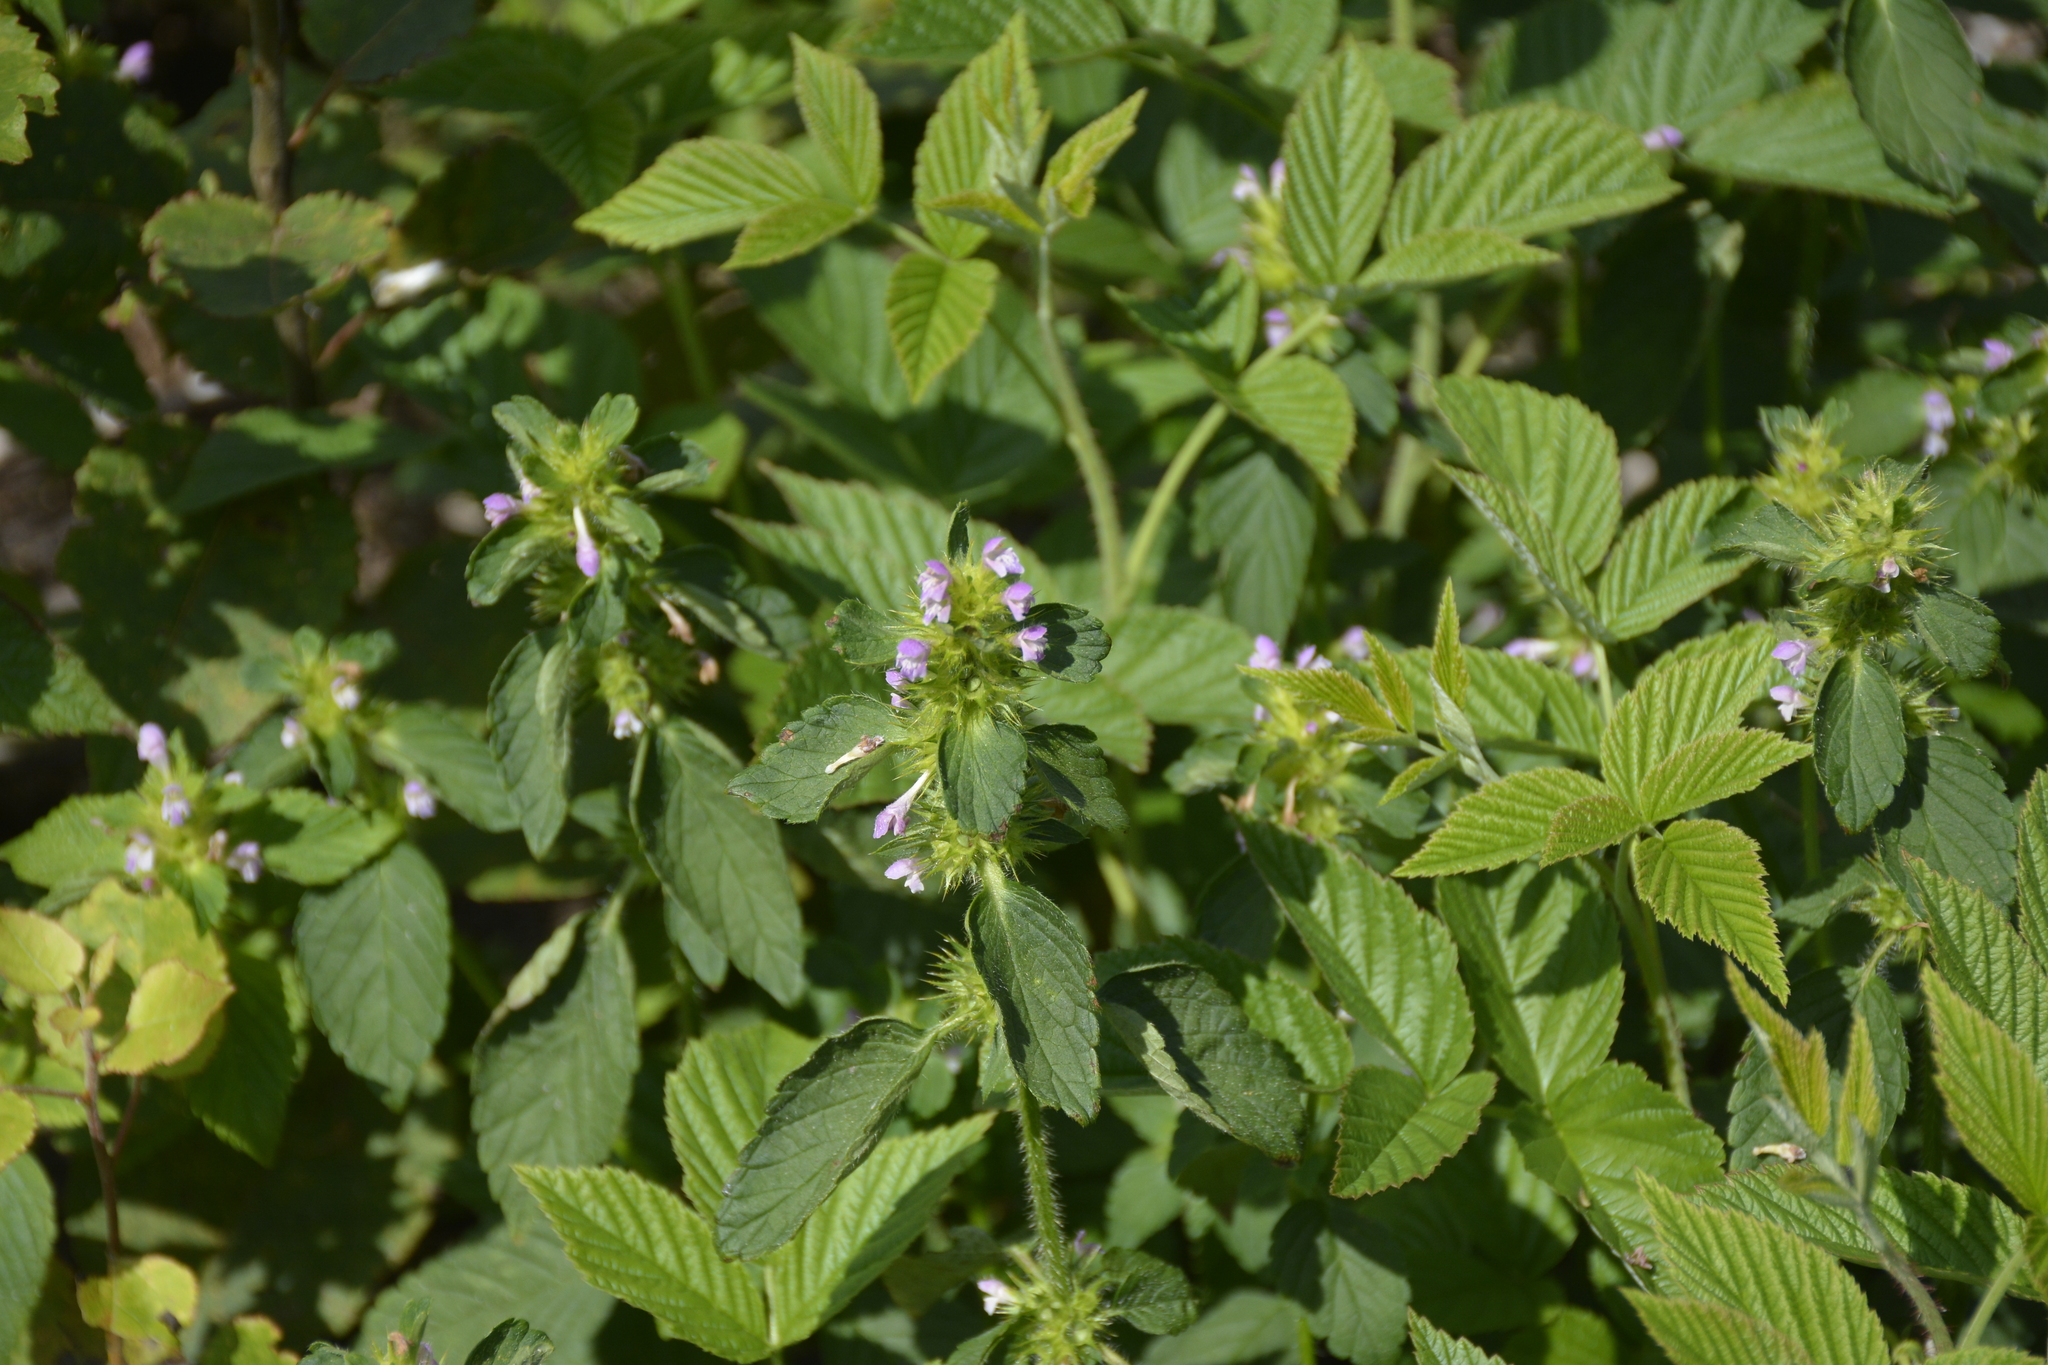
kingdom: Plantae
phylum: Tracheophyta
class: Magnoliopsida
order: Lamiales
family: Lamiaceae
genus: Galeopsis
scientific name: Galeopsis bifida
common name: Bifid hemp-nettle
